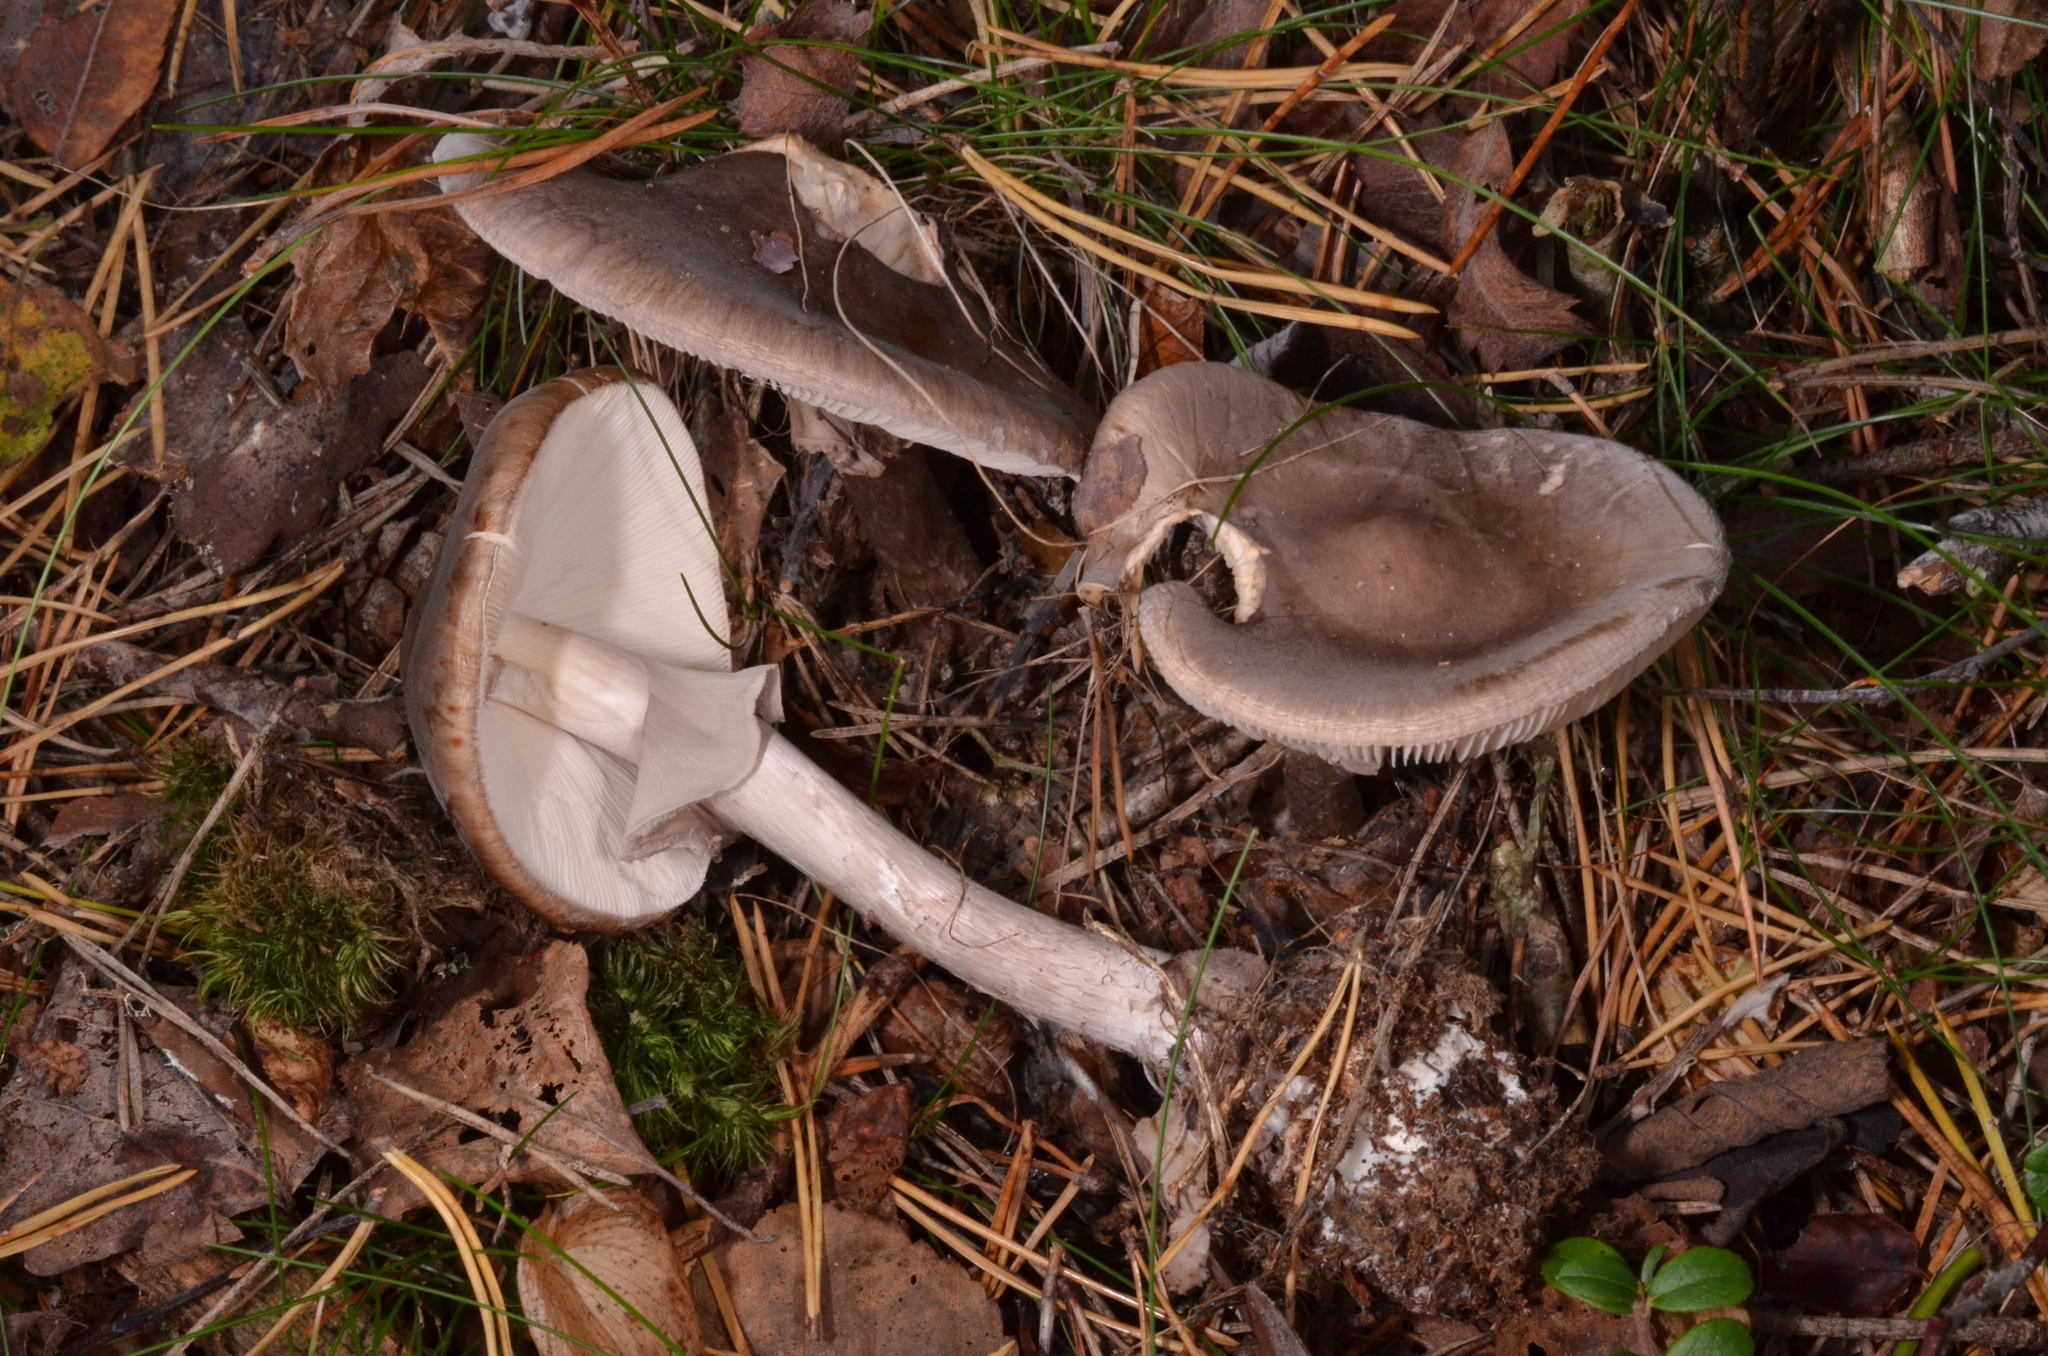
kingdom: Fungi
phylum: Basidiomycota
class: Agaricomycetes
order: Agaricales
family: Amanitaceae
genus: Amanita
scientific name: Amanita porphyria
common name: Grey veiled amanita
